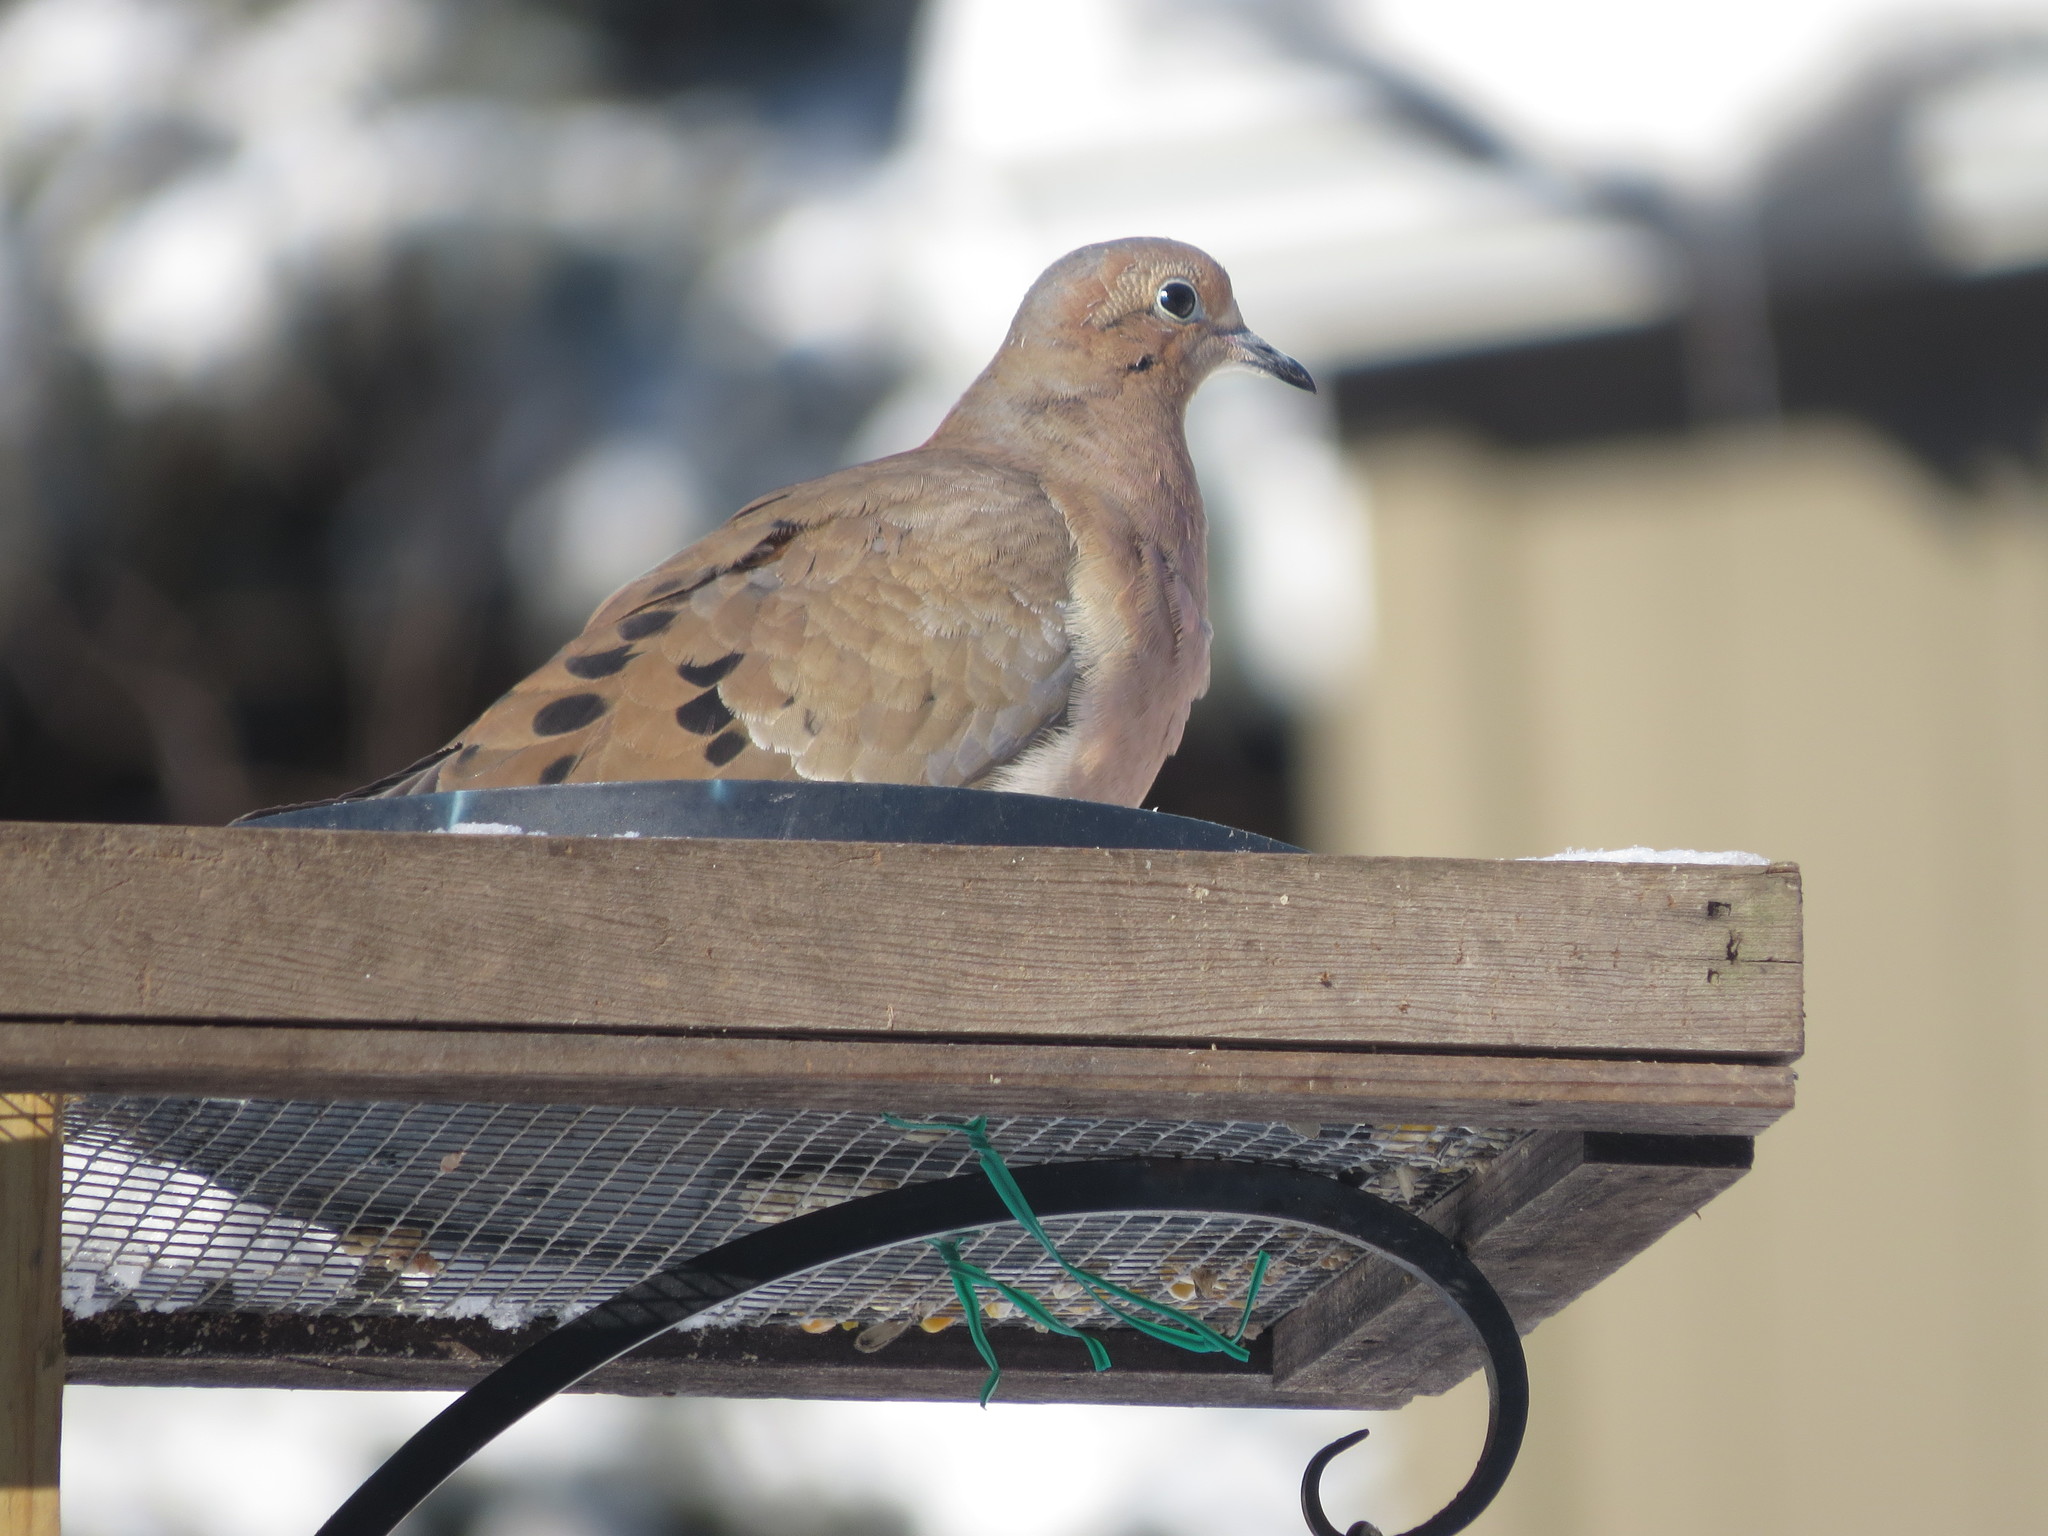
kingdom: Animalia
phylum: Chordata
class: Aves
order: Columbiformes
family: Columbidae
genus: Zenaida
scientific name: Zenaida macroura
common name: Mourning dove
